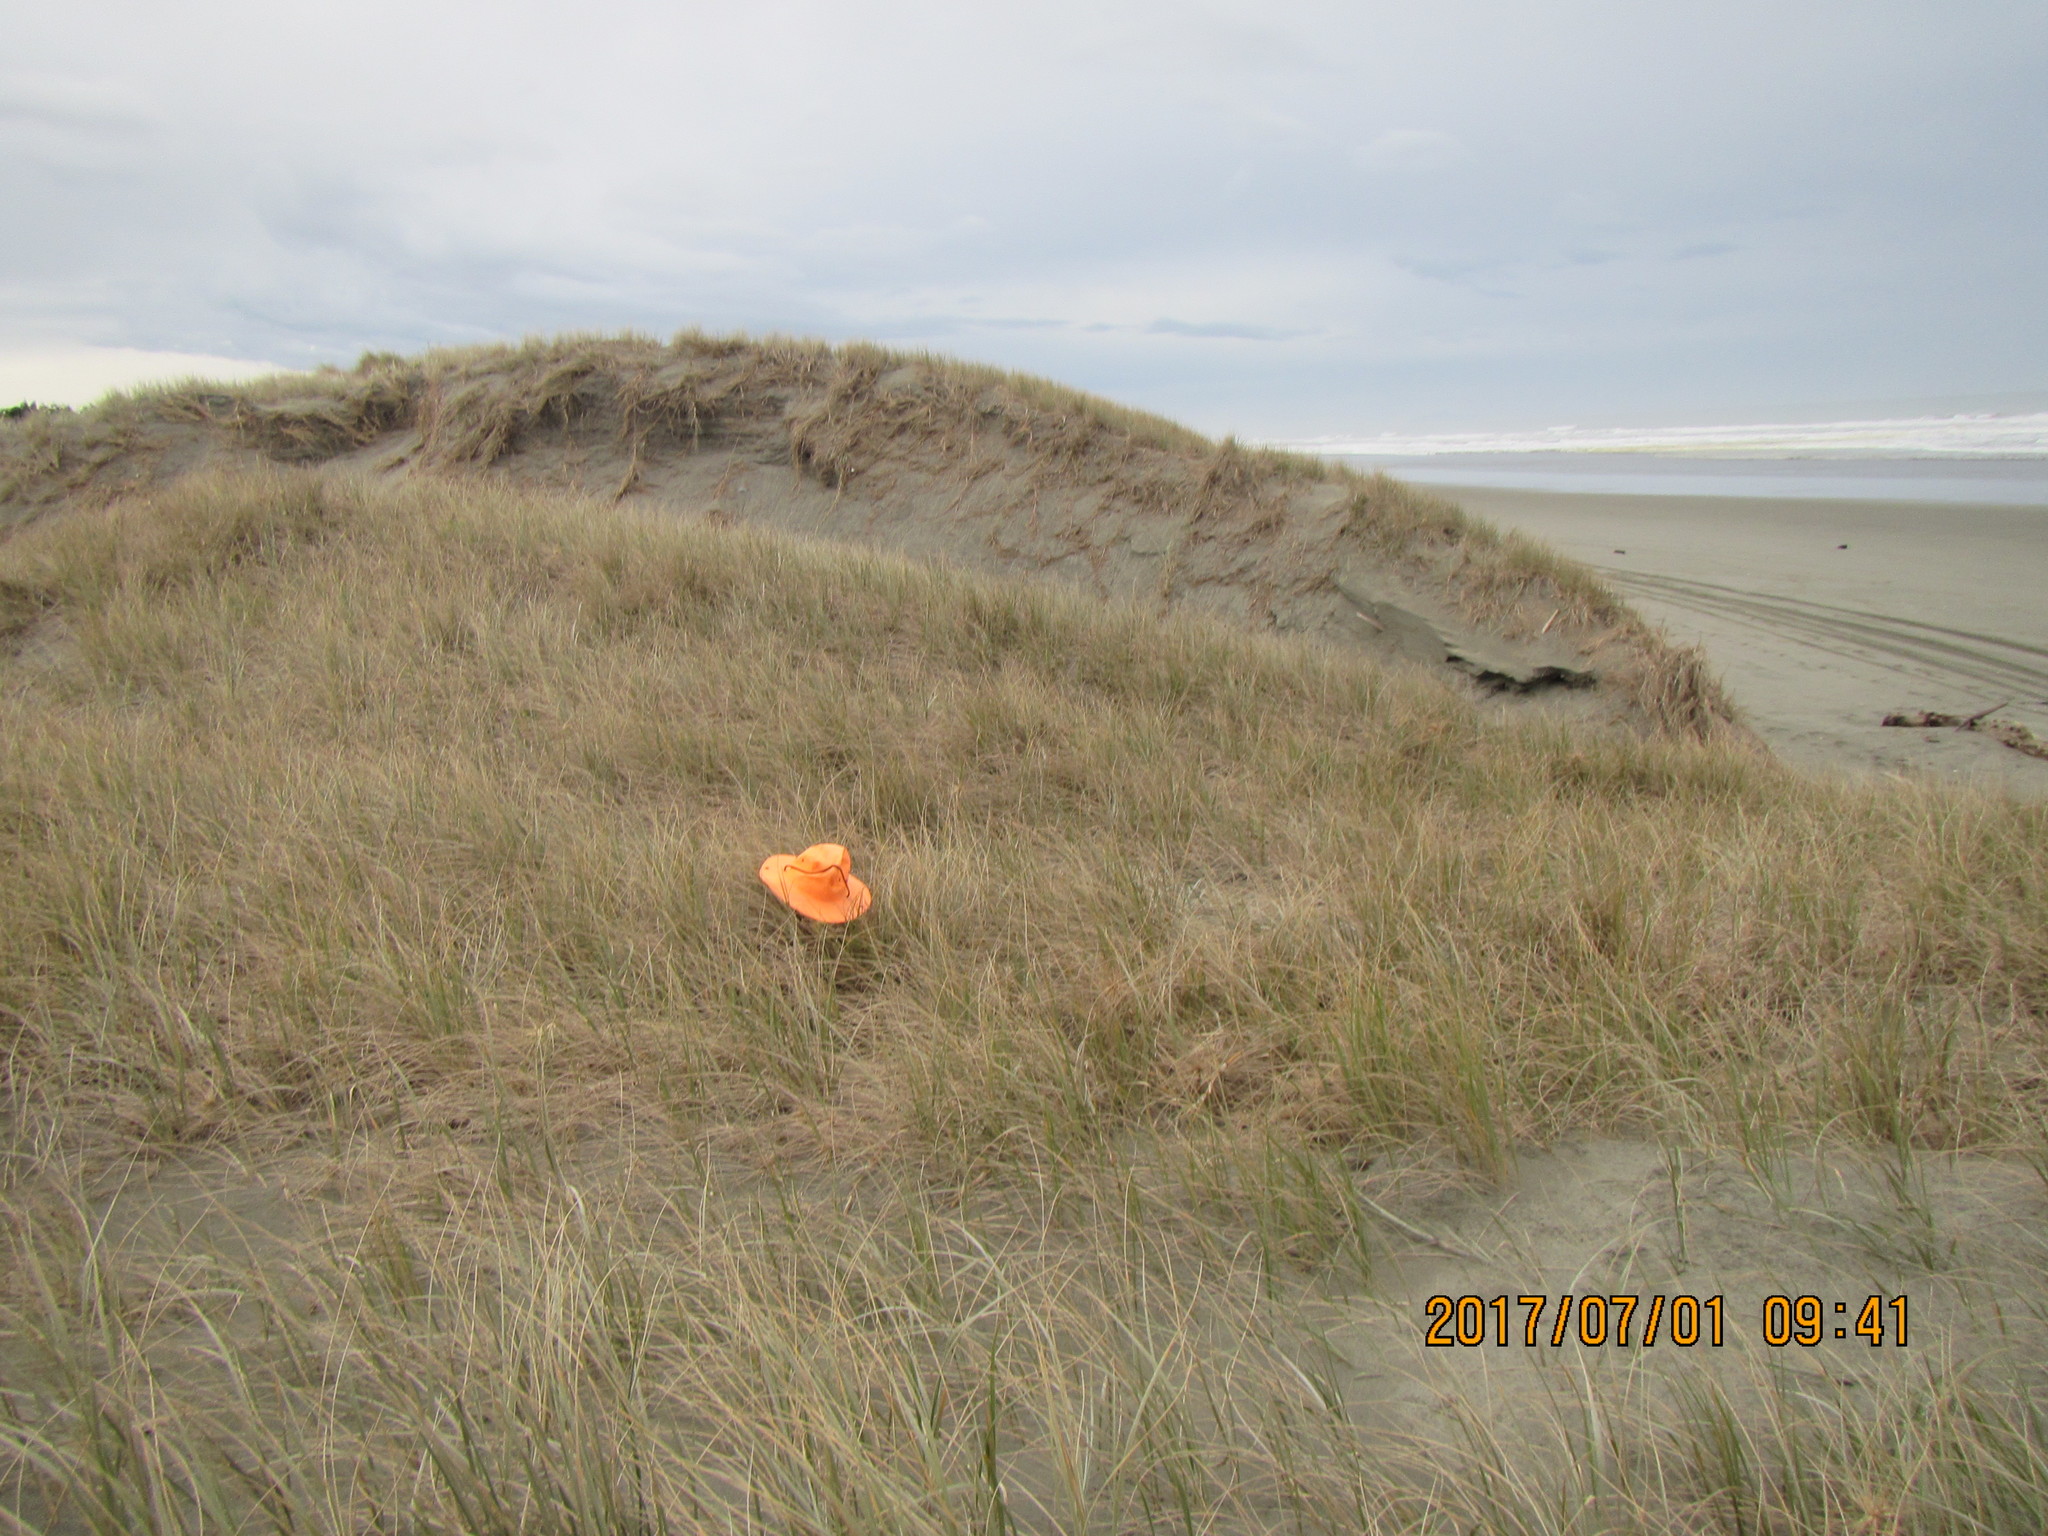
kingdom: Plantae
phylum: Tracheophyta
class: Liliopsida
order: Poales
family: Poaceae
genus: Spinifex
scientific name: Spinifex sericeus
